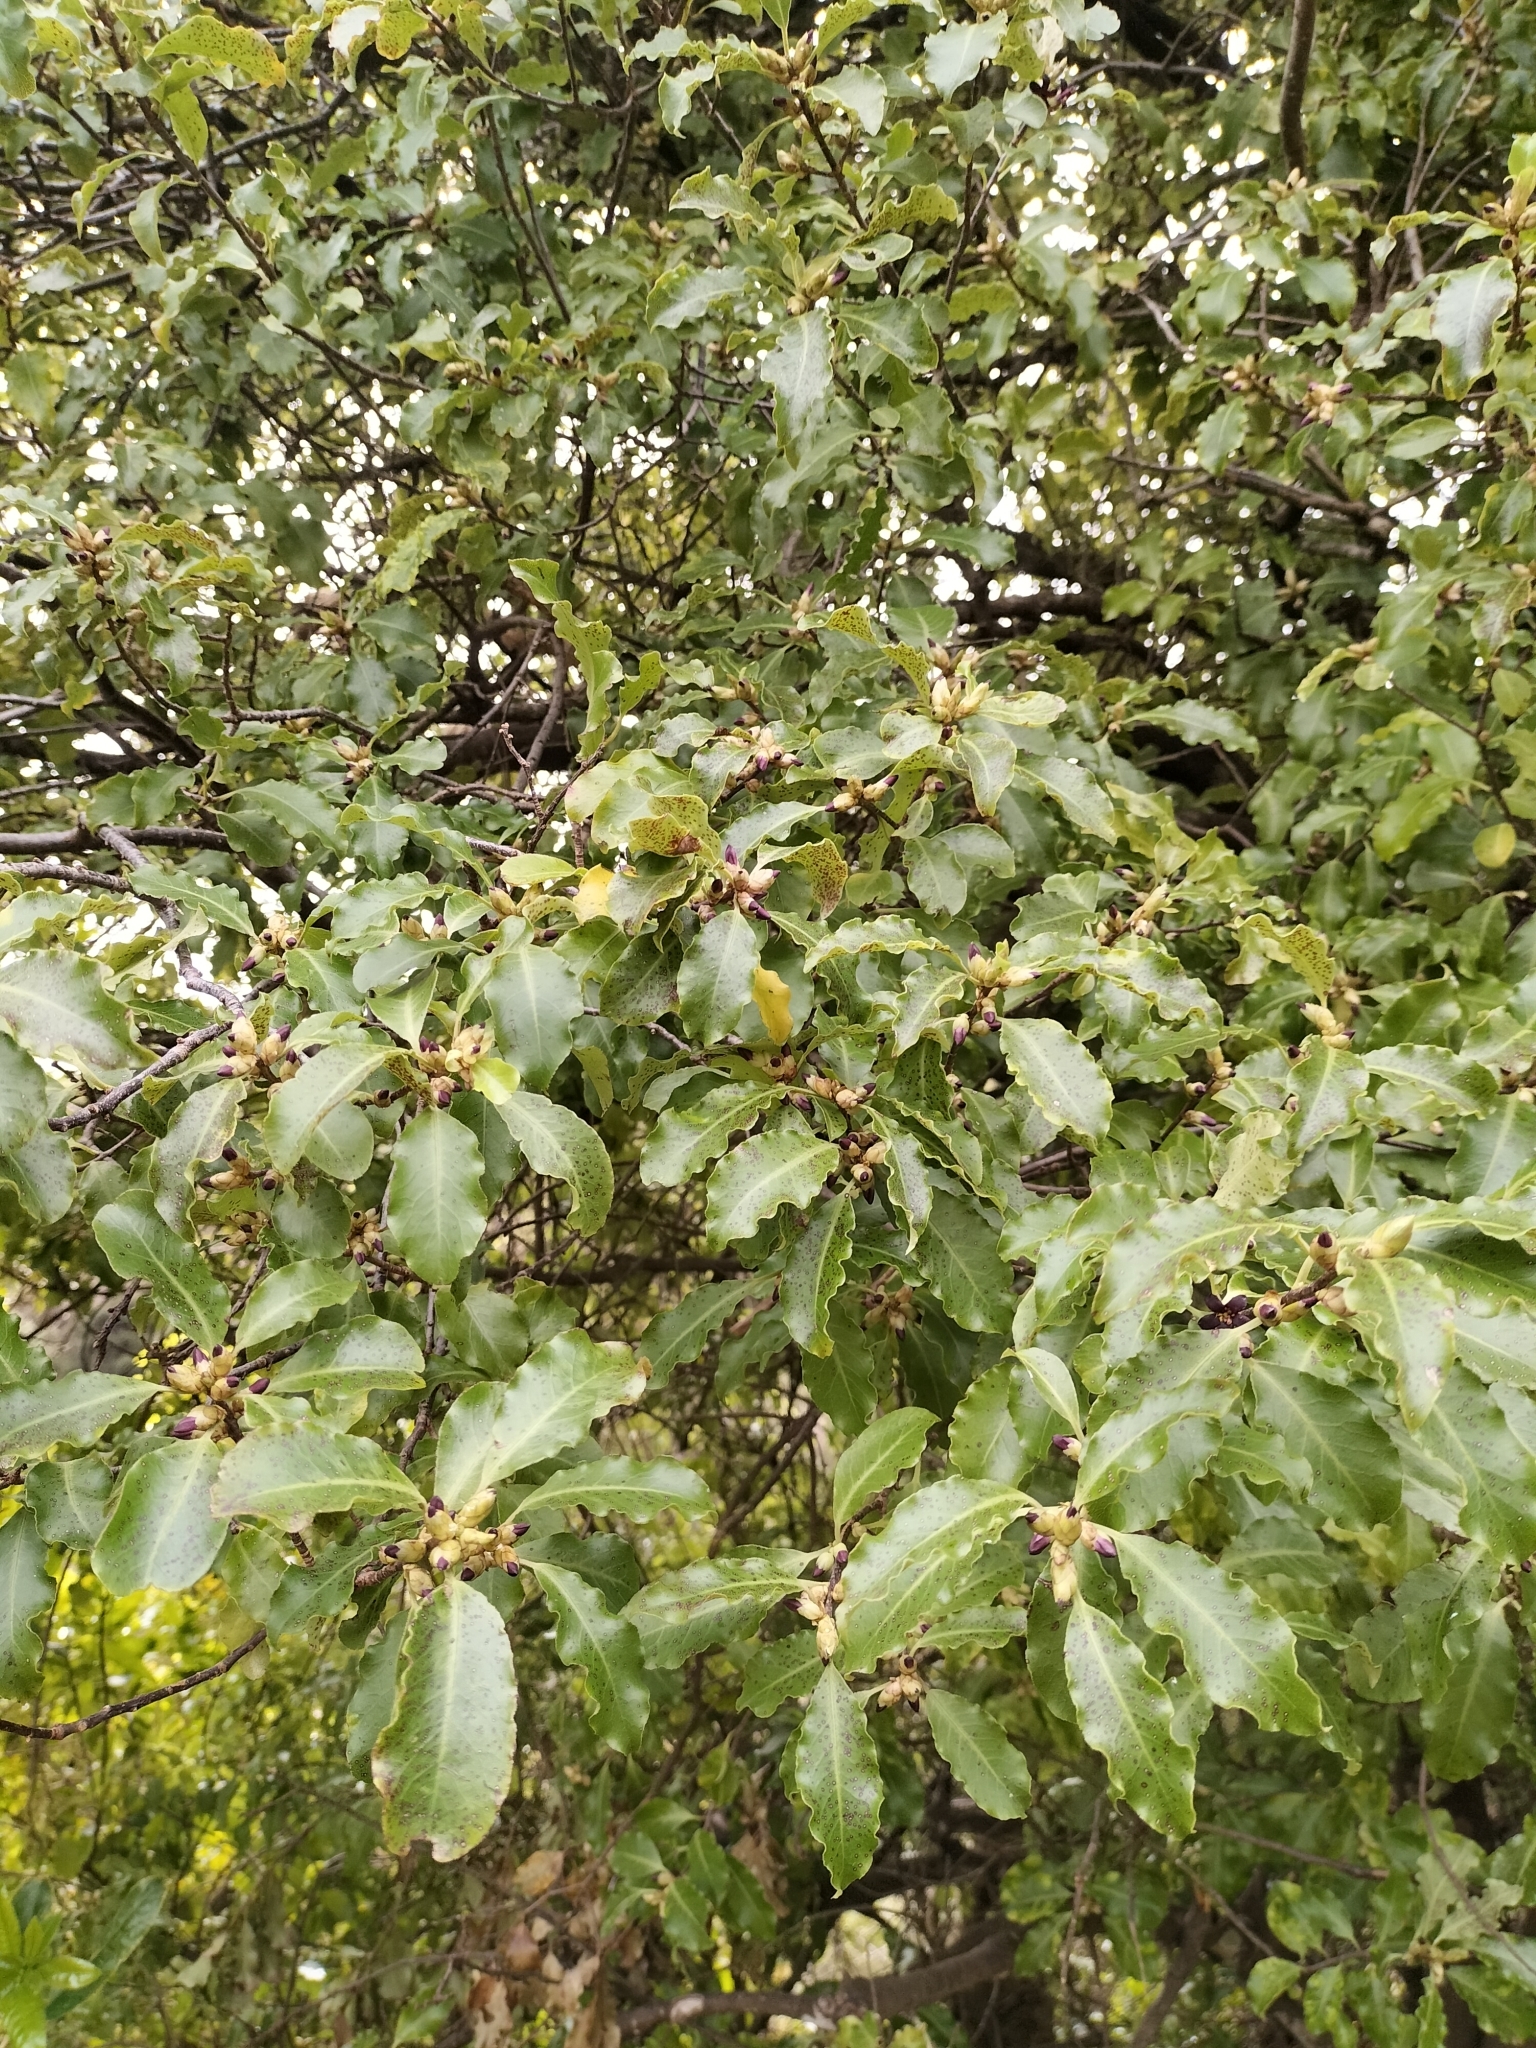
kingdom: Plantae
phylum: Tracheophyta
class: Magnoliopsida
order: Apiales
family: Pittosporaceae
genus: Pittosporum
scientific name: Pittosporum tenuifolium
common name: Kohuhu
